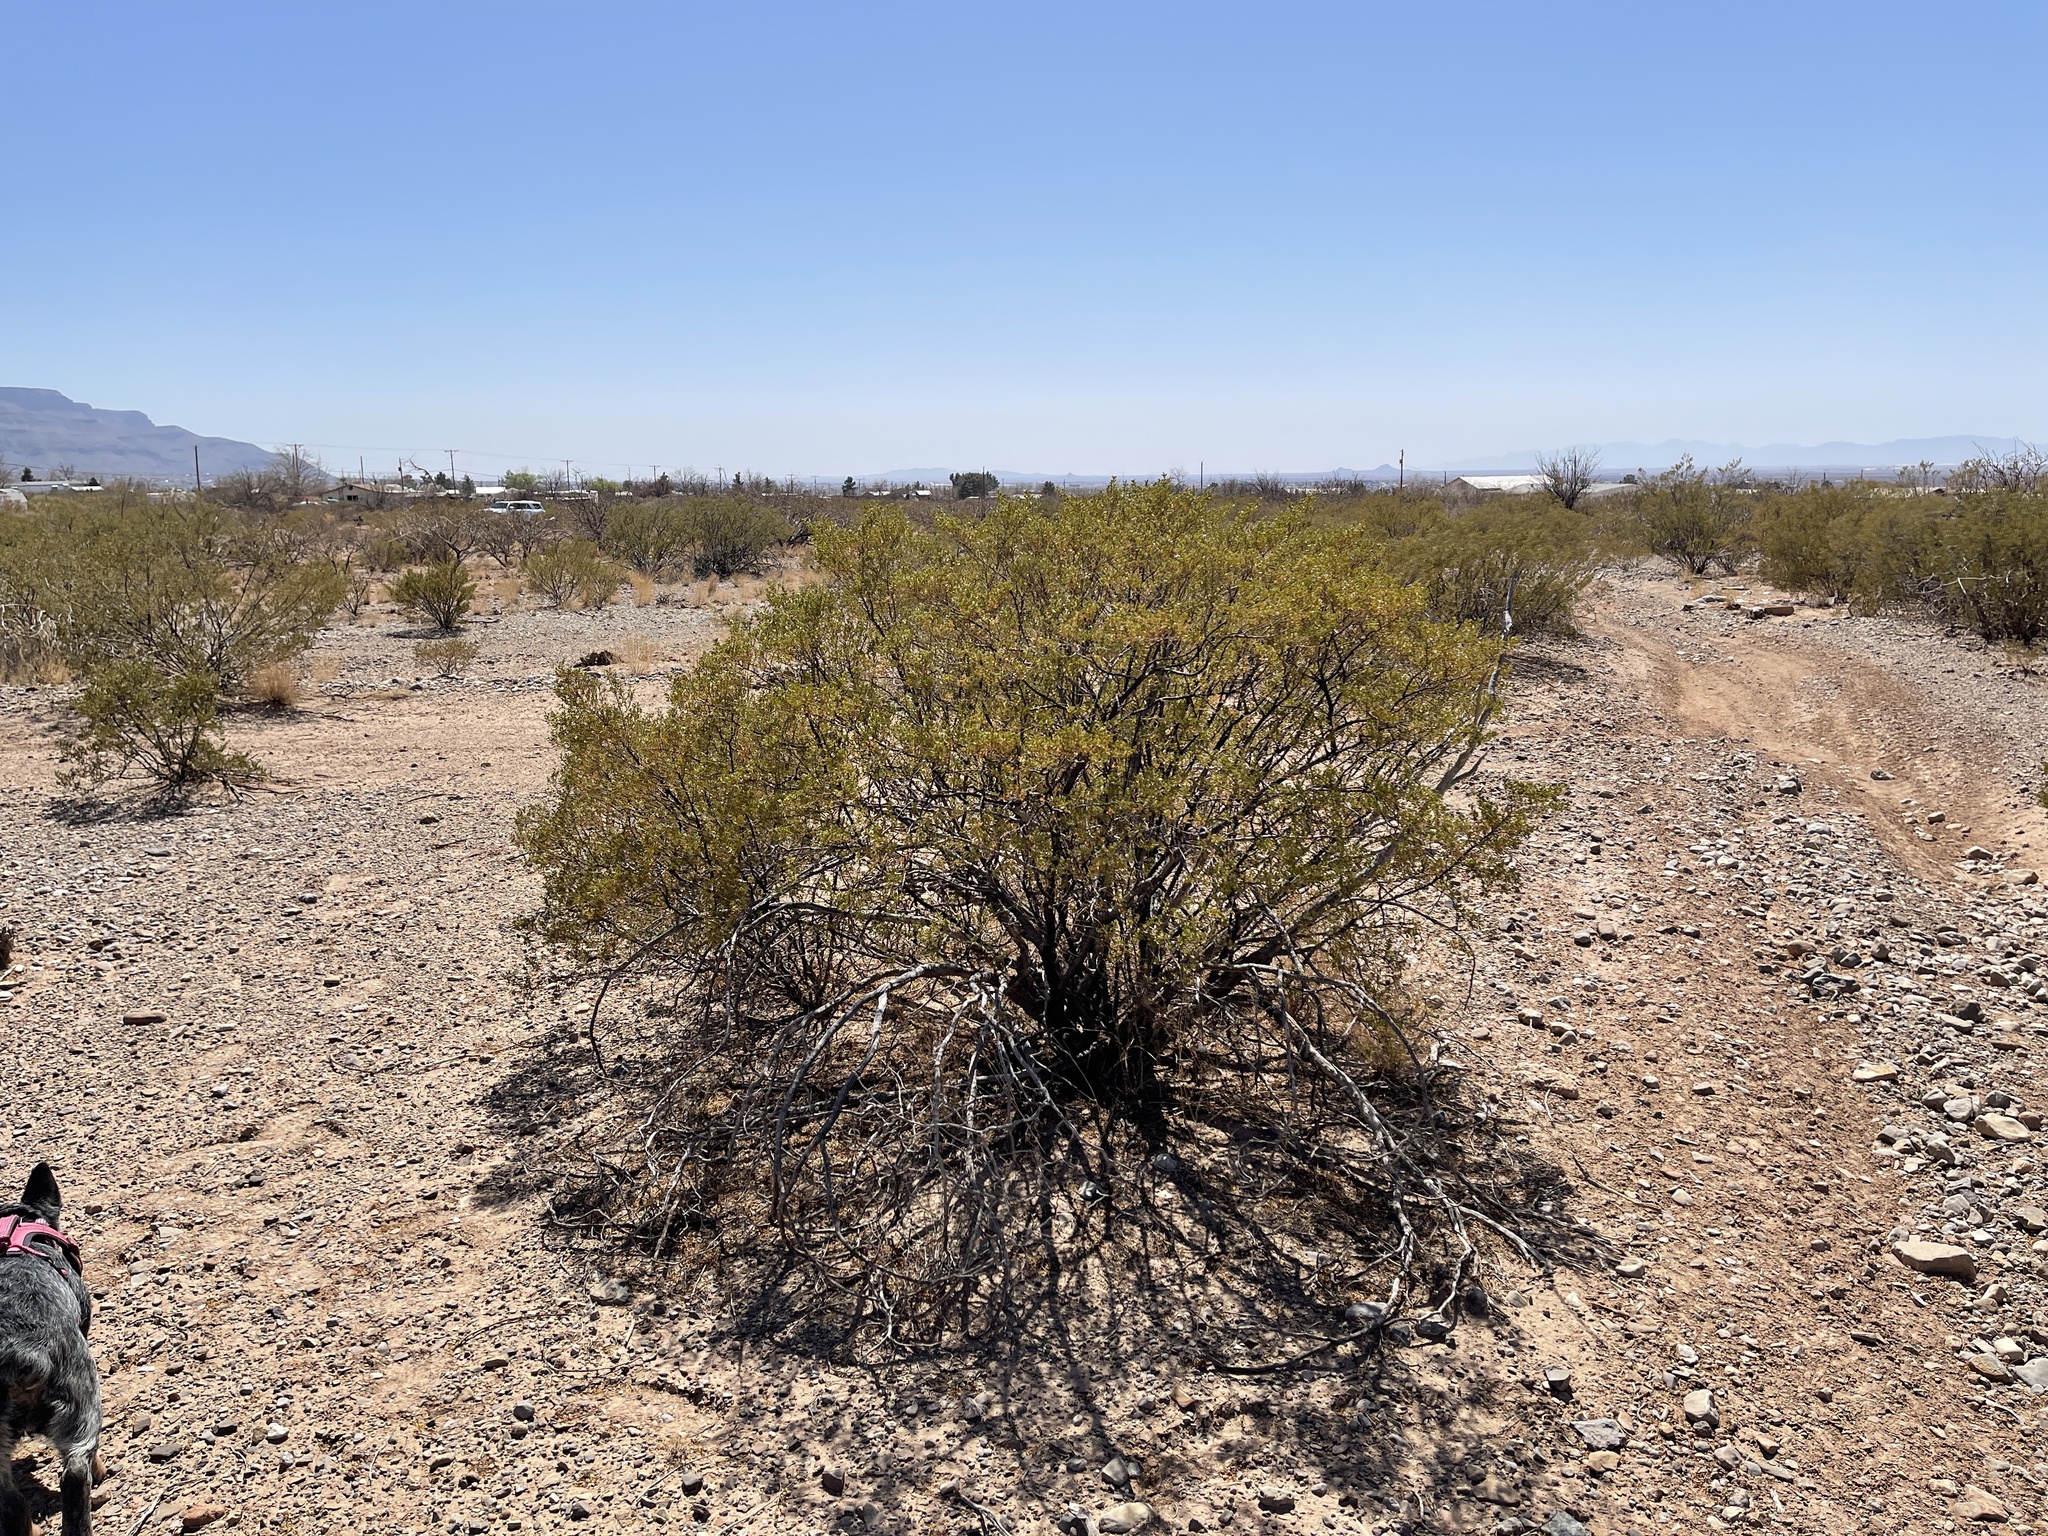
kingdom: Plantae
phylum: Tracheophyta
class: Magnoliopsida
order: Zygophyllales
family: Zygophyllaceae
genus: Larrea
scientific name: Larrea tridentata
